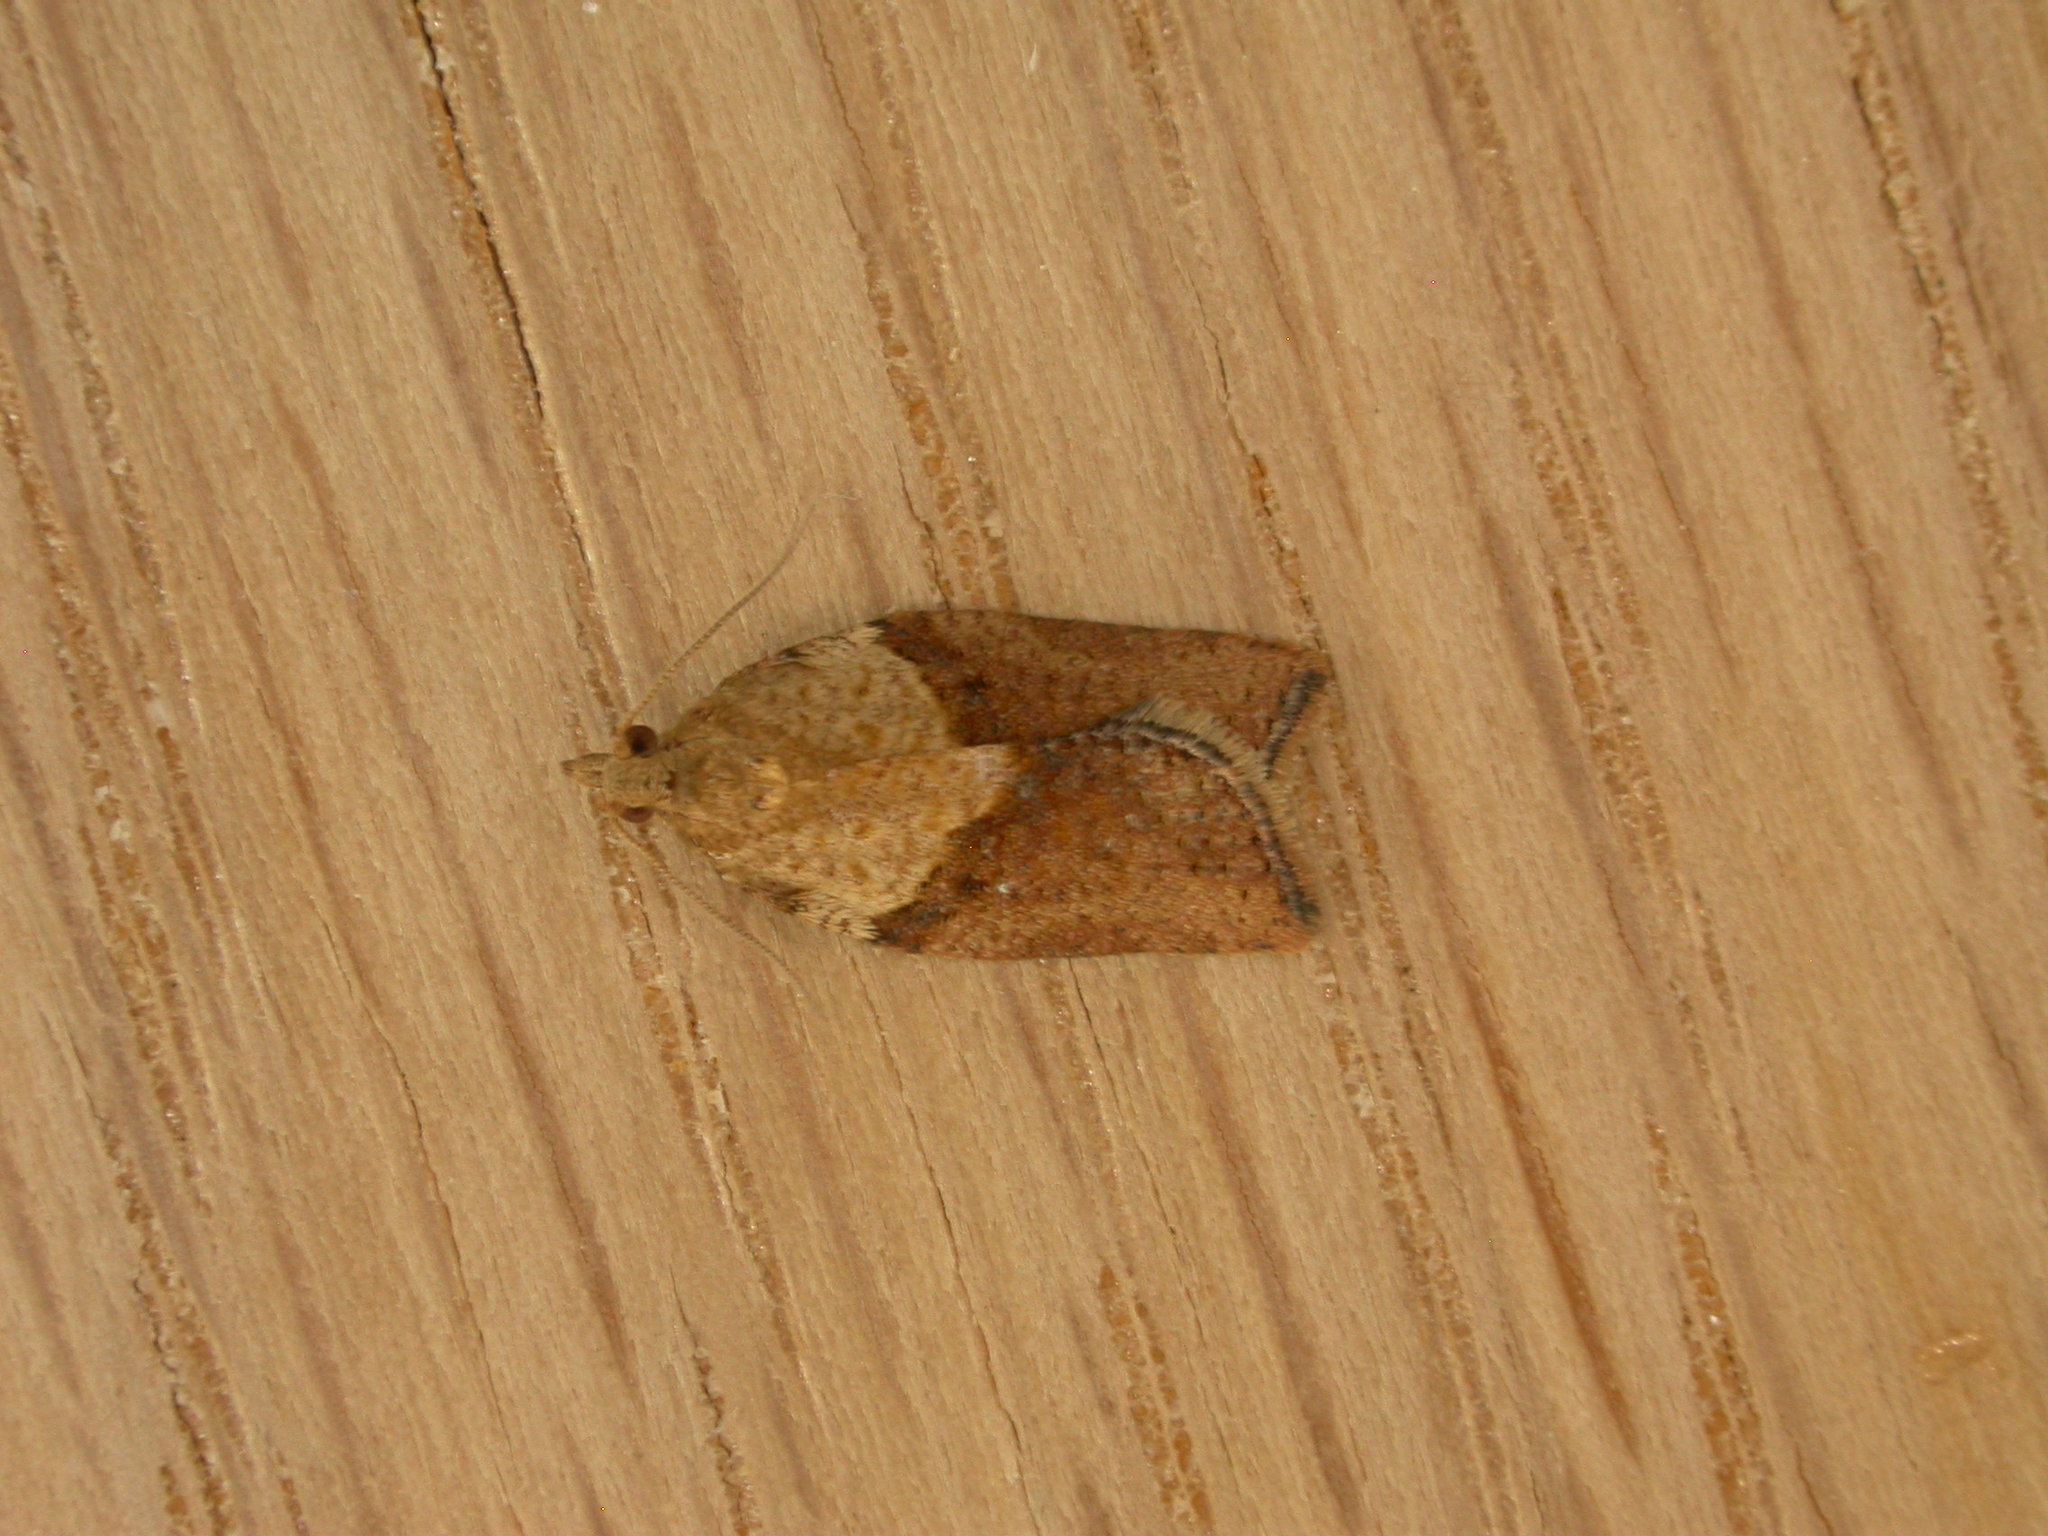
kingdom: Animalia
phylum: Arthropoda
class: Insecta
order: Lepidoptera
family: Tortricidae
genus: Epiphyas
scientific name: Epiphyas postvittana
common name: Light brown apple moth
